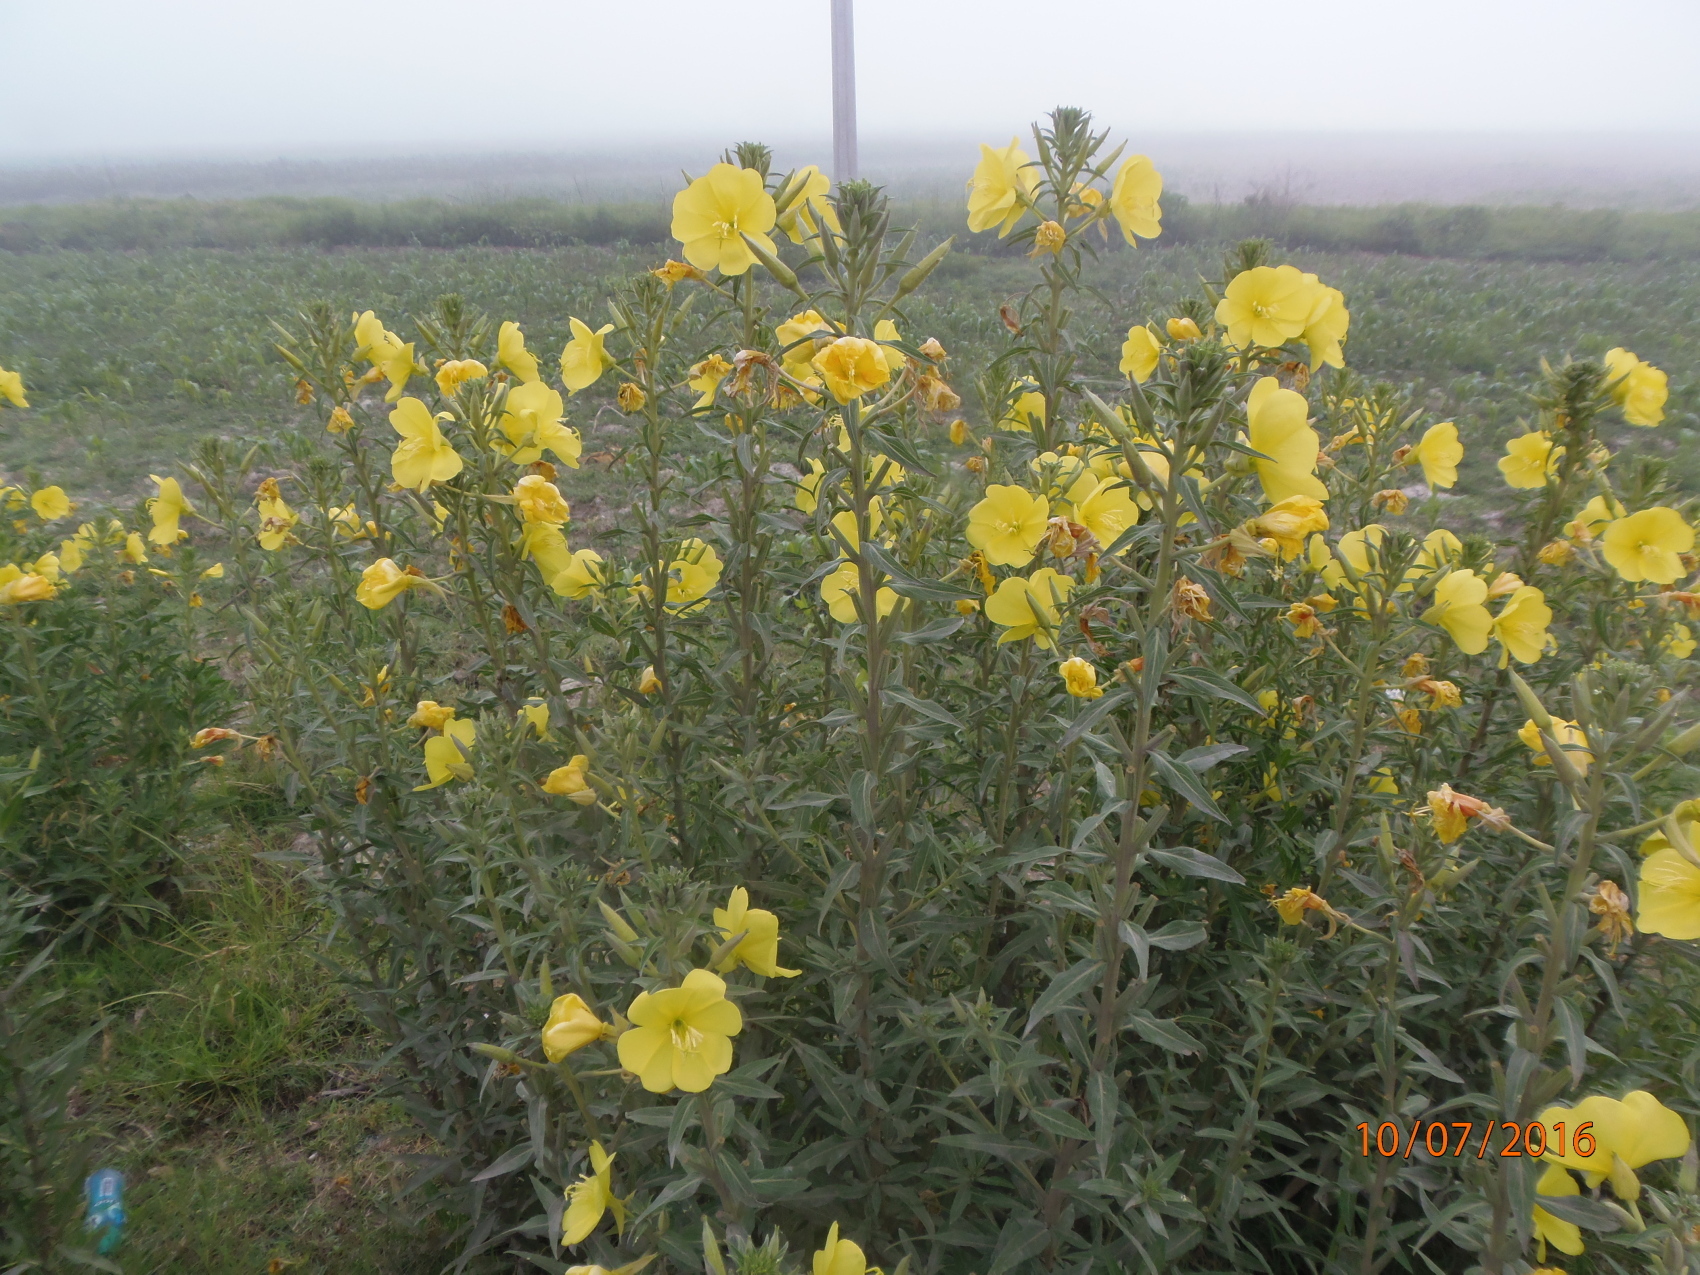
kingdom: Plantae
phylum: Tracheophyta
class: Magnoliopsida
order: Myrtales
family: Onagraceae
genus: Oenothera
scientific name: Oenothera elata
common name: Hooker's evening-primrose
